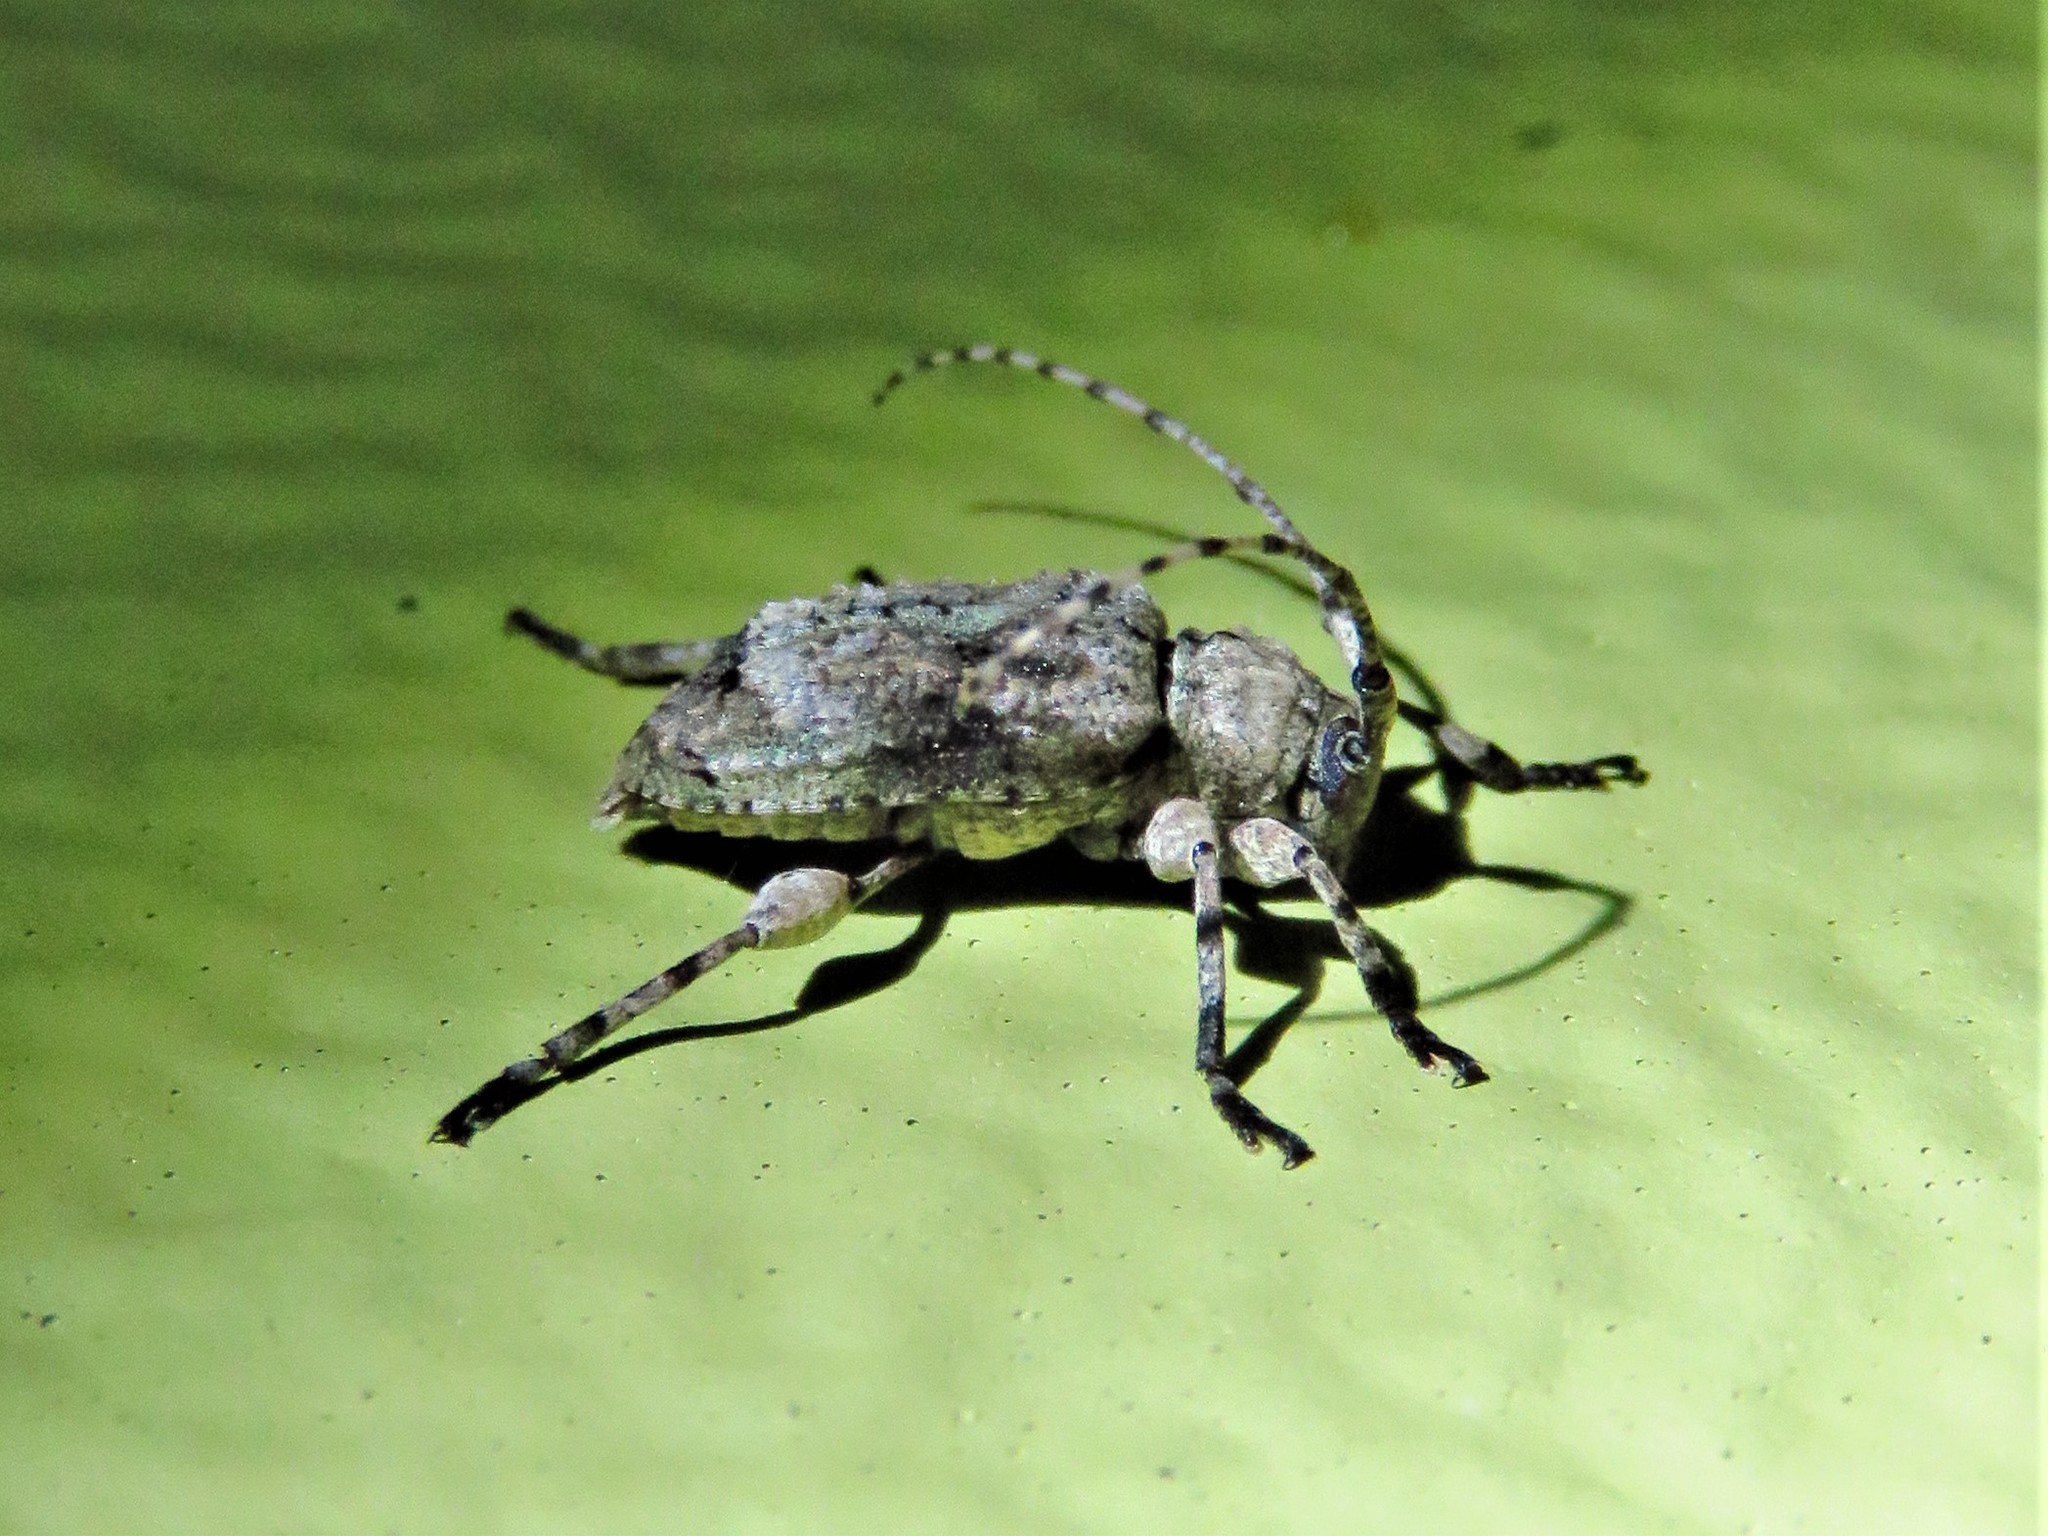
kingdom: Animalia
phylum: Arthropoda
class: Insecta
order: Coleoptera
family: Cerambycidae
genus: Leptostylus
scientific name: Leptostylus transversus
